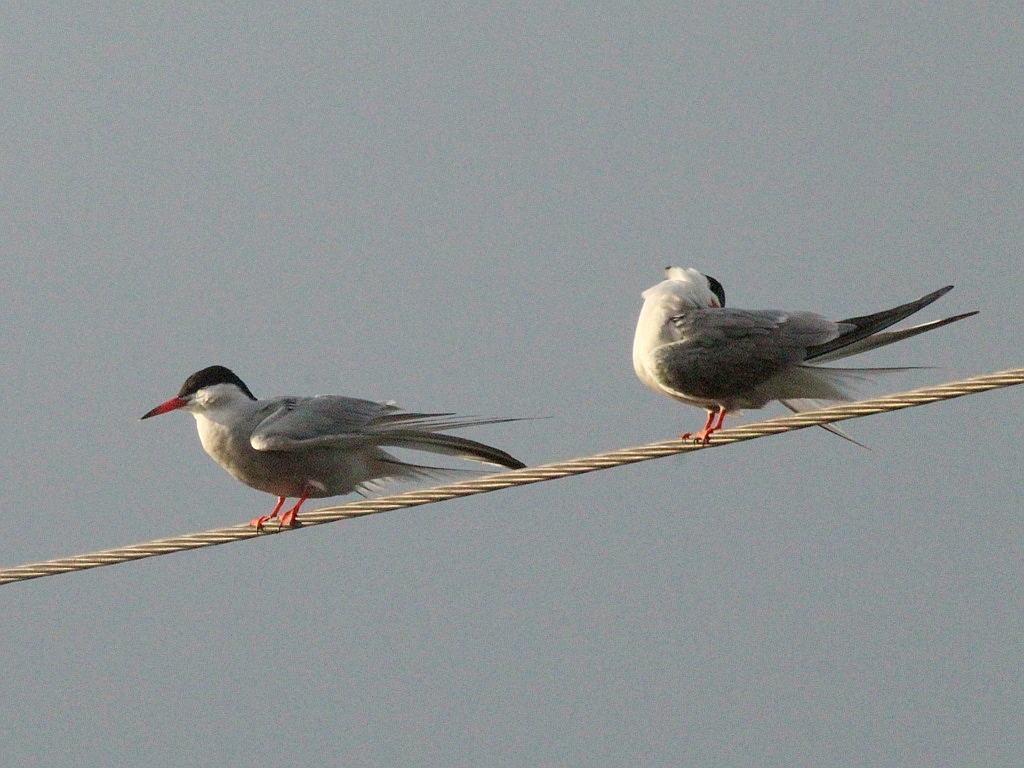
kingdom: Animalia
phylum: Chordata
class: Aves
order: Charadriiformes
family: Laridae
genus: Sterna
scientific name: Sterna hirundo
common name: Common tern
